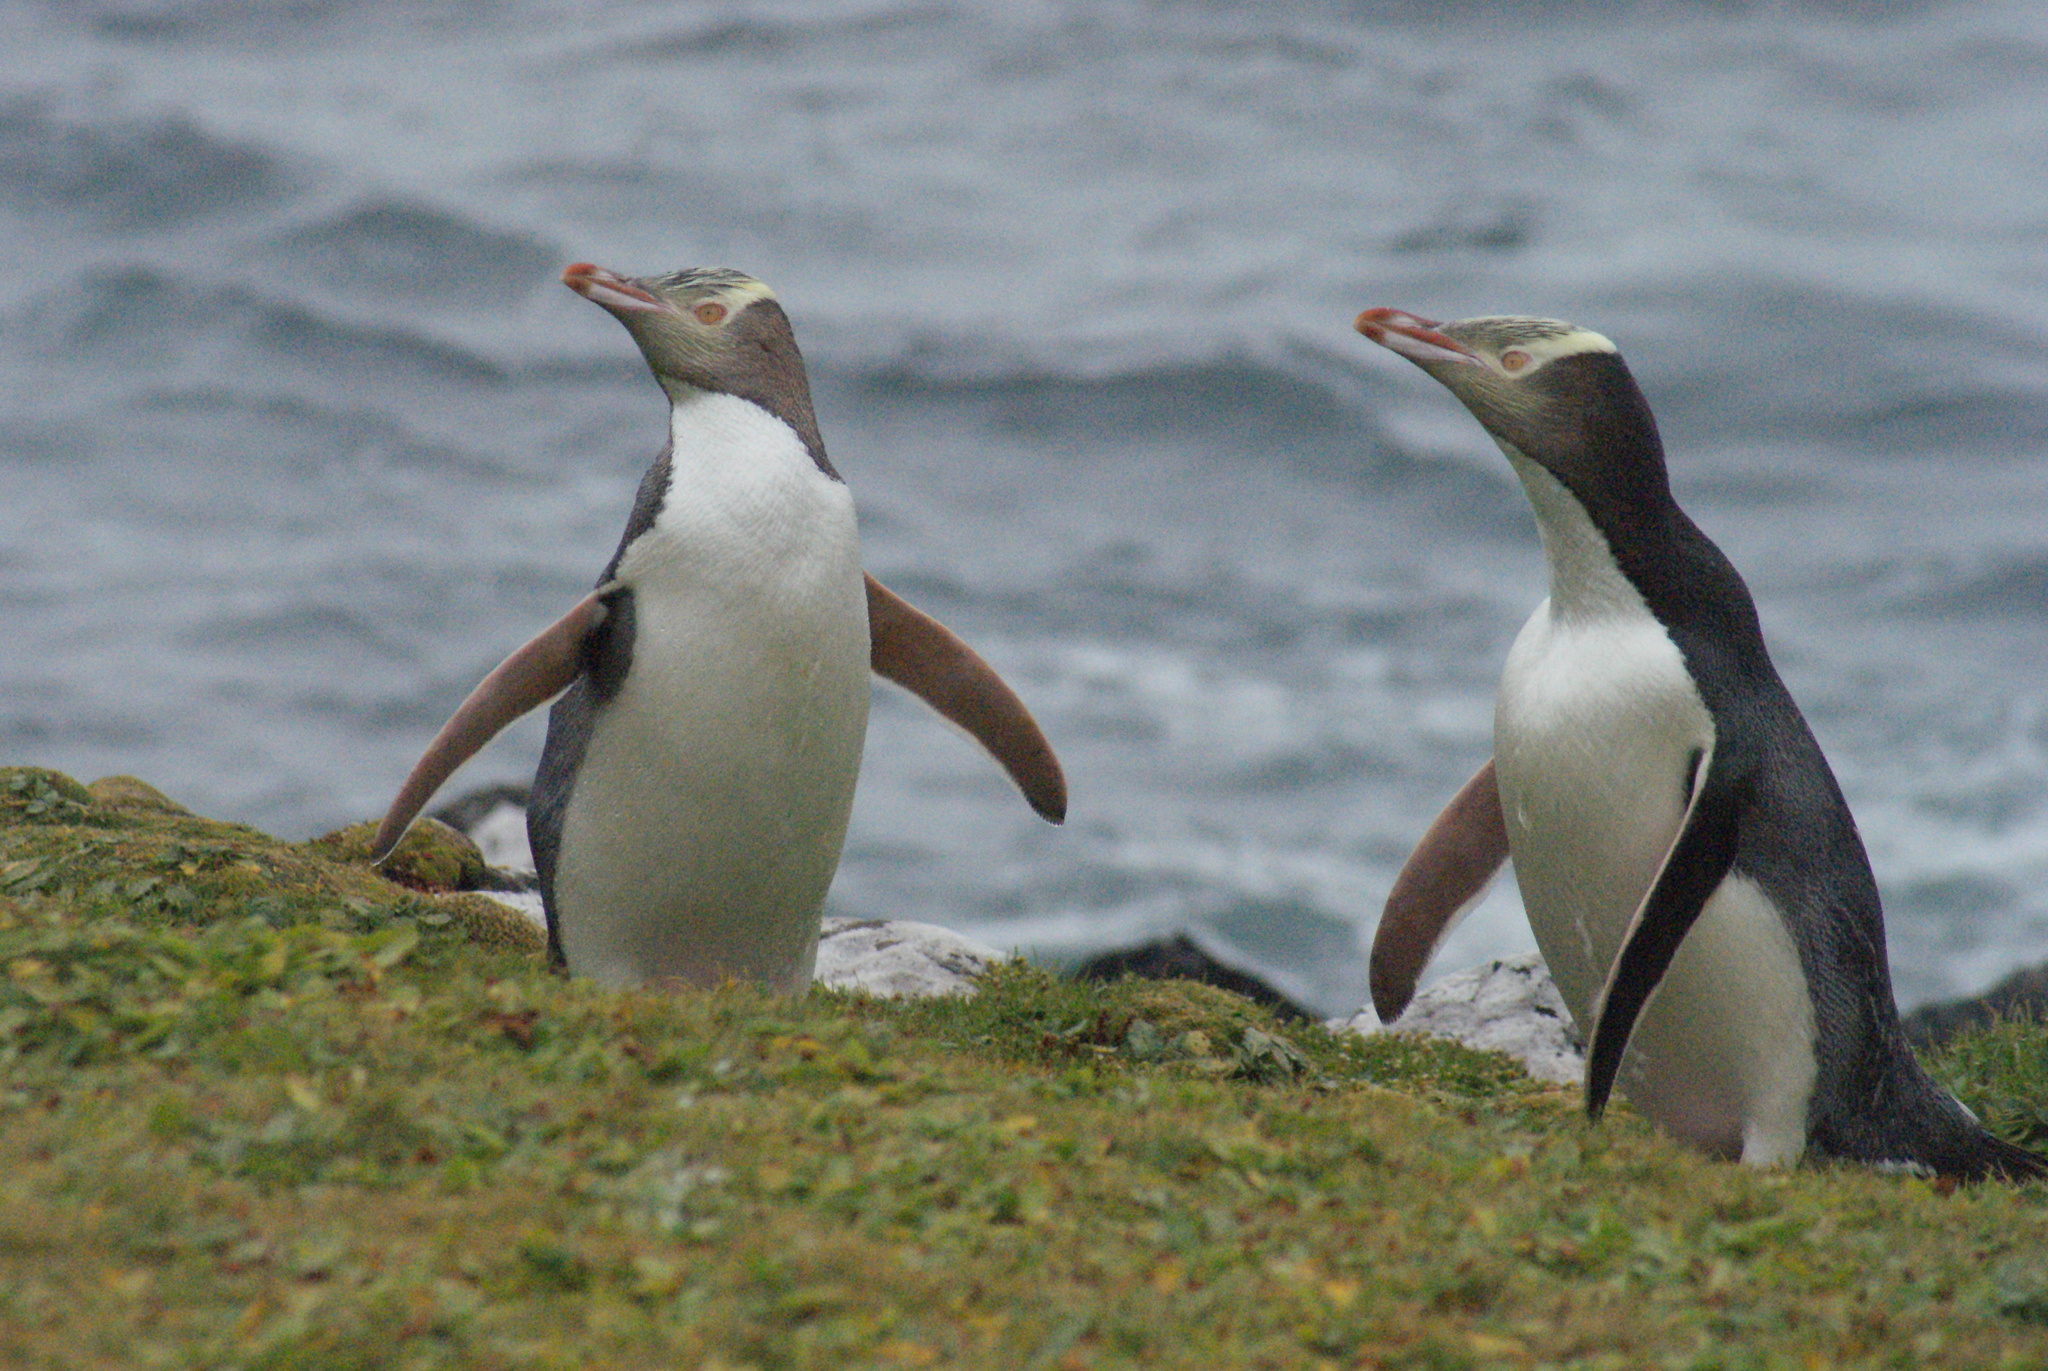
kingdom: Animalia
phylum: Chordata
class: Aves
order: Sphenisciformes
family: Spheniscidae
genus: Megadyptes
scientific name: Megadyptes antipodes
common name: Yellow-eyed penguin
